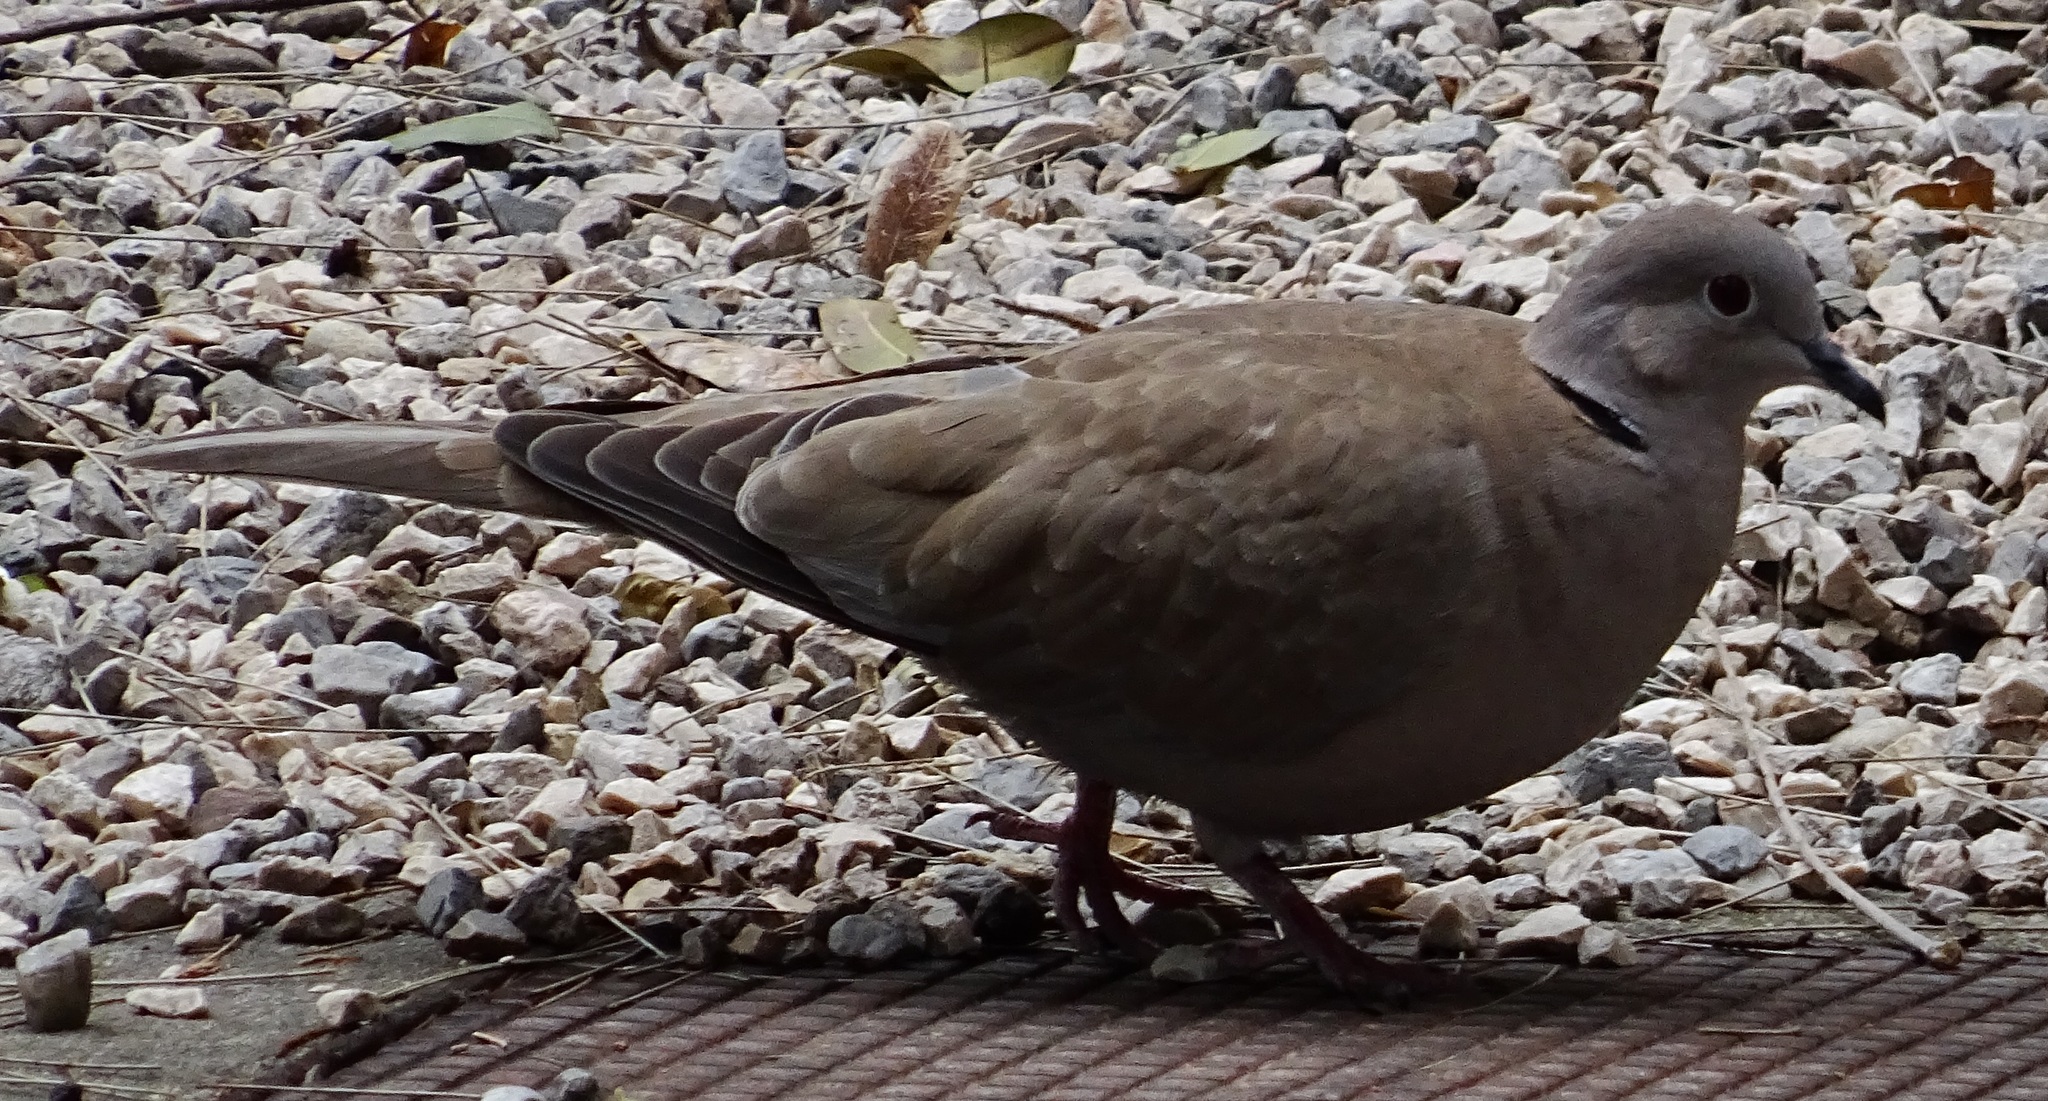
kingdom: Animalia
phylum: Chordata
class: Aves
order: Columbiformes
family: Columbidae
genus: Streptopelia
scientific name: Streptopelia decaocto
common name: Eurasian collared dove
